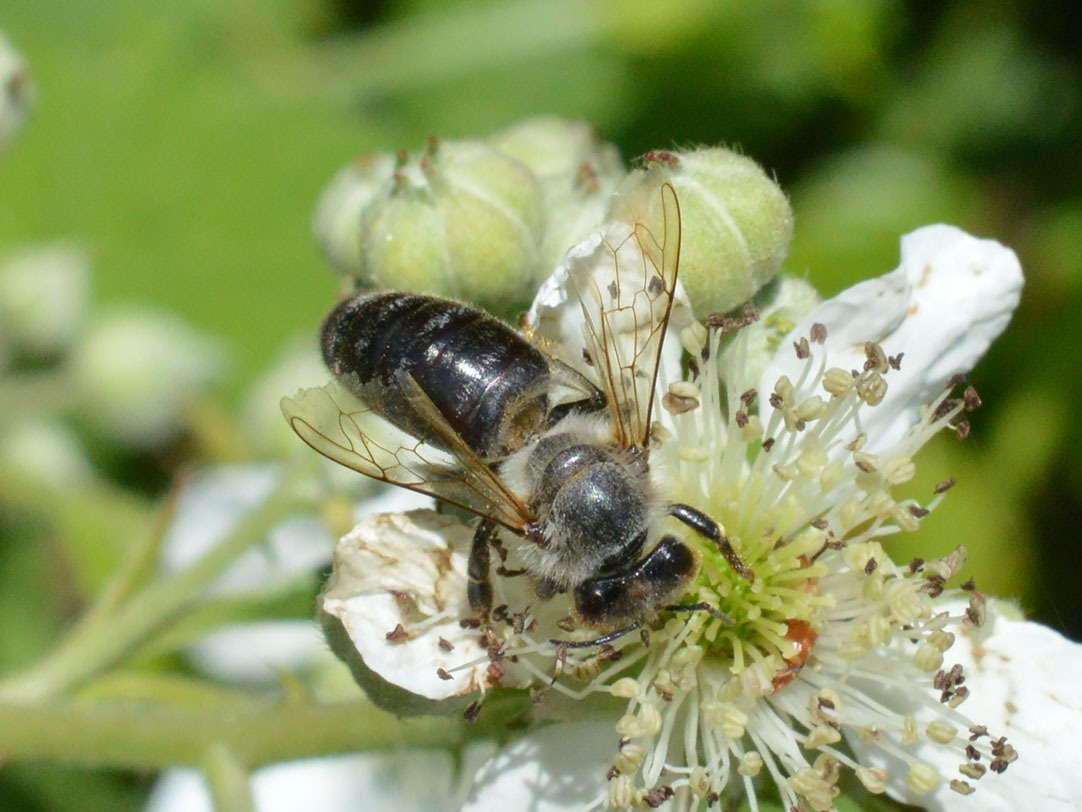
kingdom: Animalia
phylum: Arthropoda
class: Insecta
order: Hymenoptera
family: Apidae
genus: Apis
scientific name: Apis mellifera
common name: Honey bee
